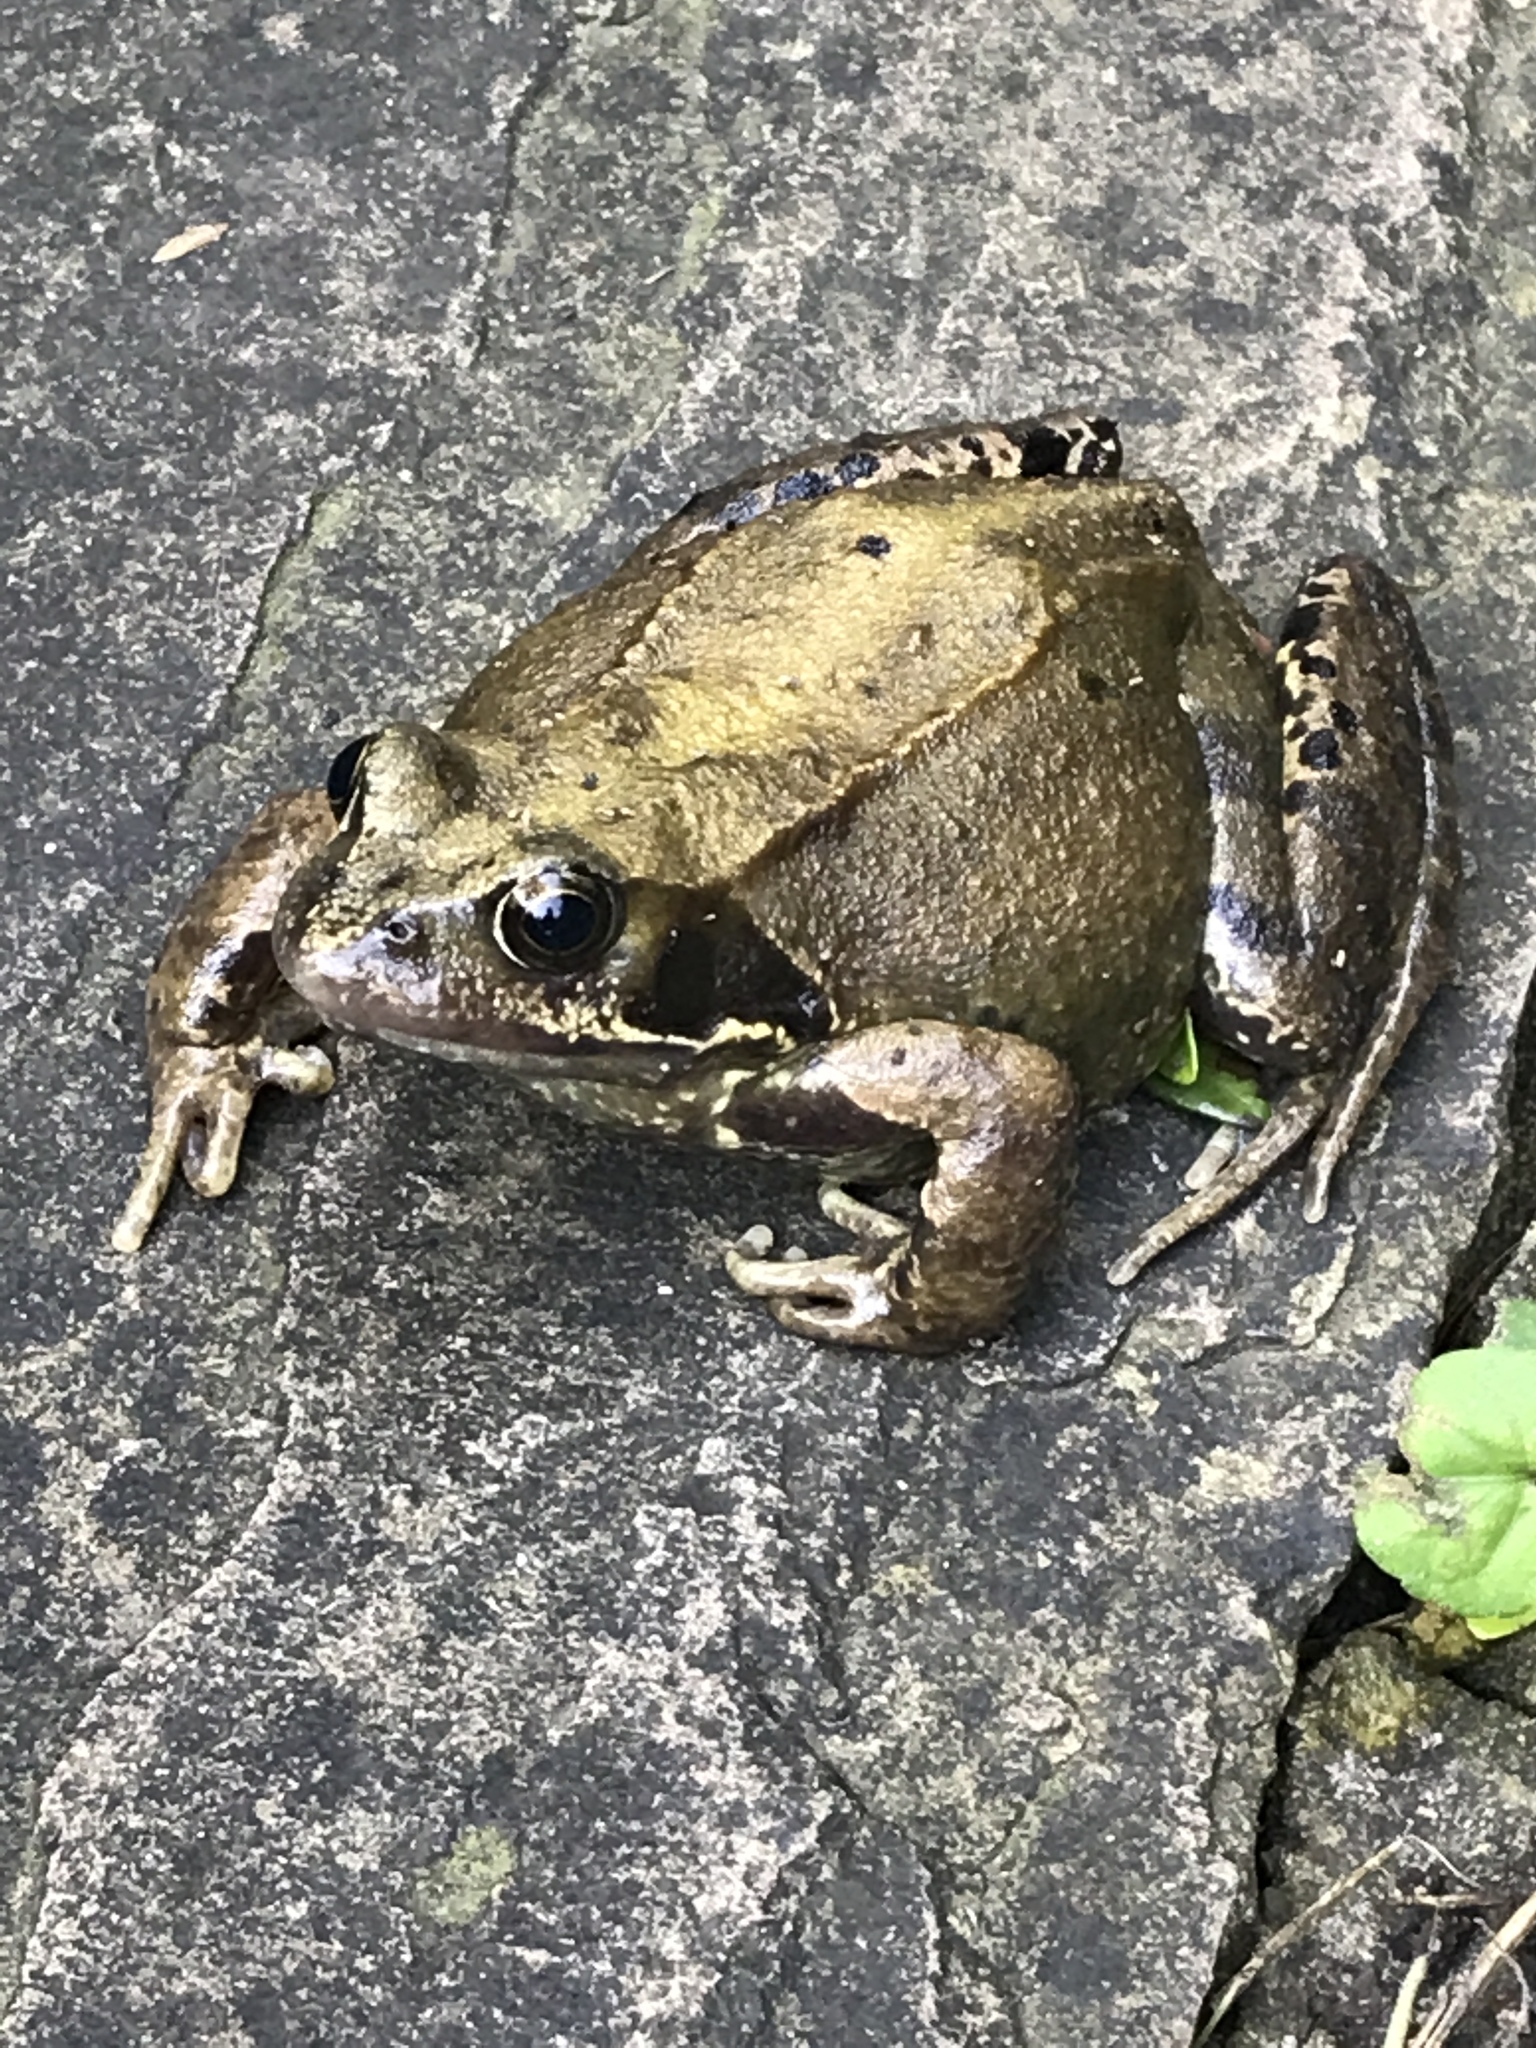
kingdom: Animalia
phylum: Chordata
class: Amphibia
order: Anura
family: Ranidae
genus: Rana
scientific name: Rana temporaria
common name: Common frog
